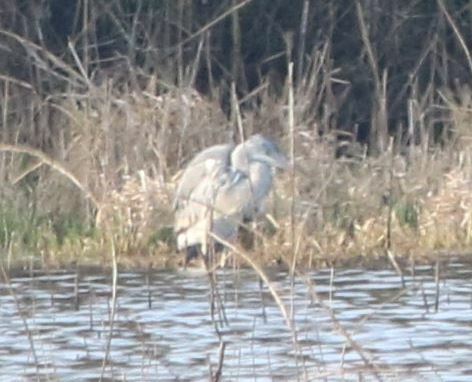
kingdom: Animalia
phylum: Chordata
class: Aves
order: Pelecaniformes
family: Ardeidae
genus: Ardea
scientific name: Ardea cinerea
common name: Grey heron
